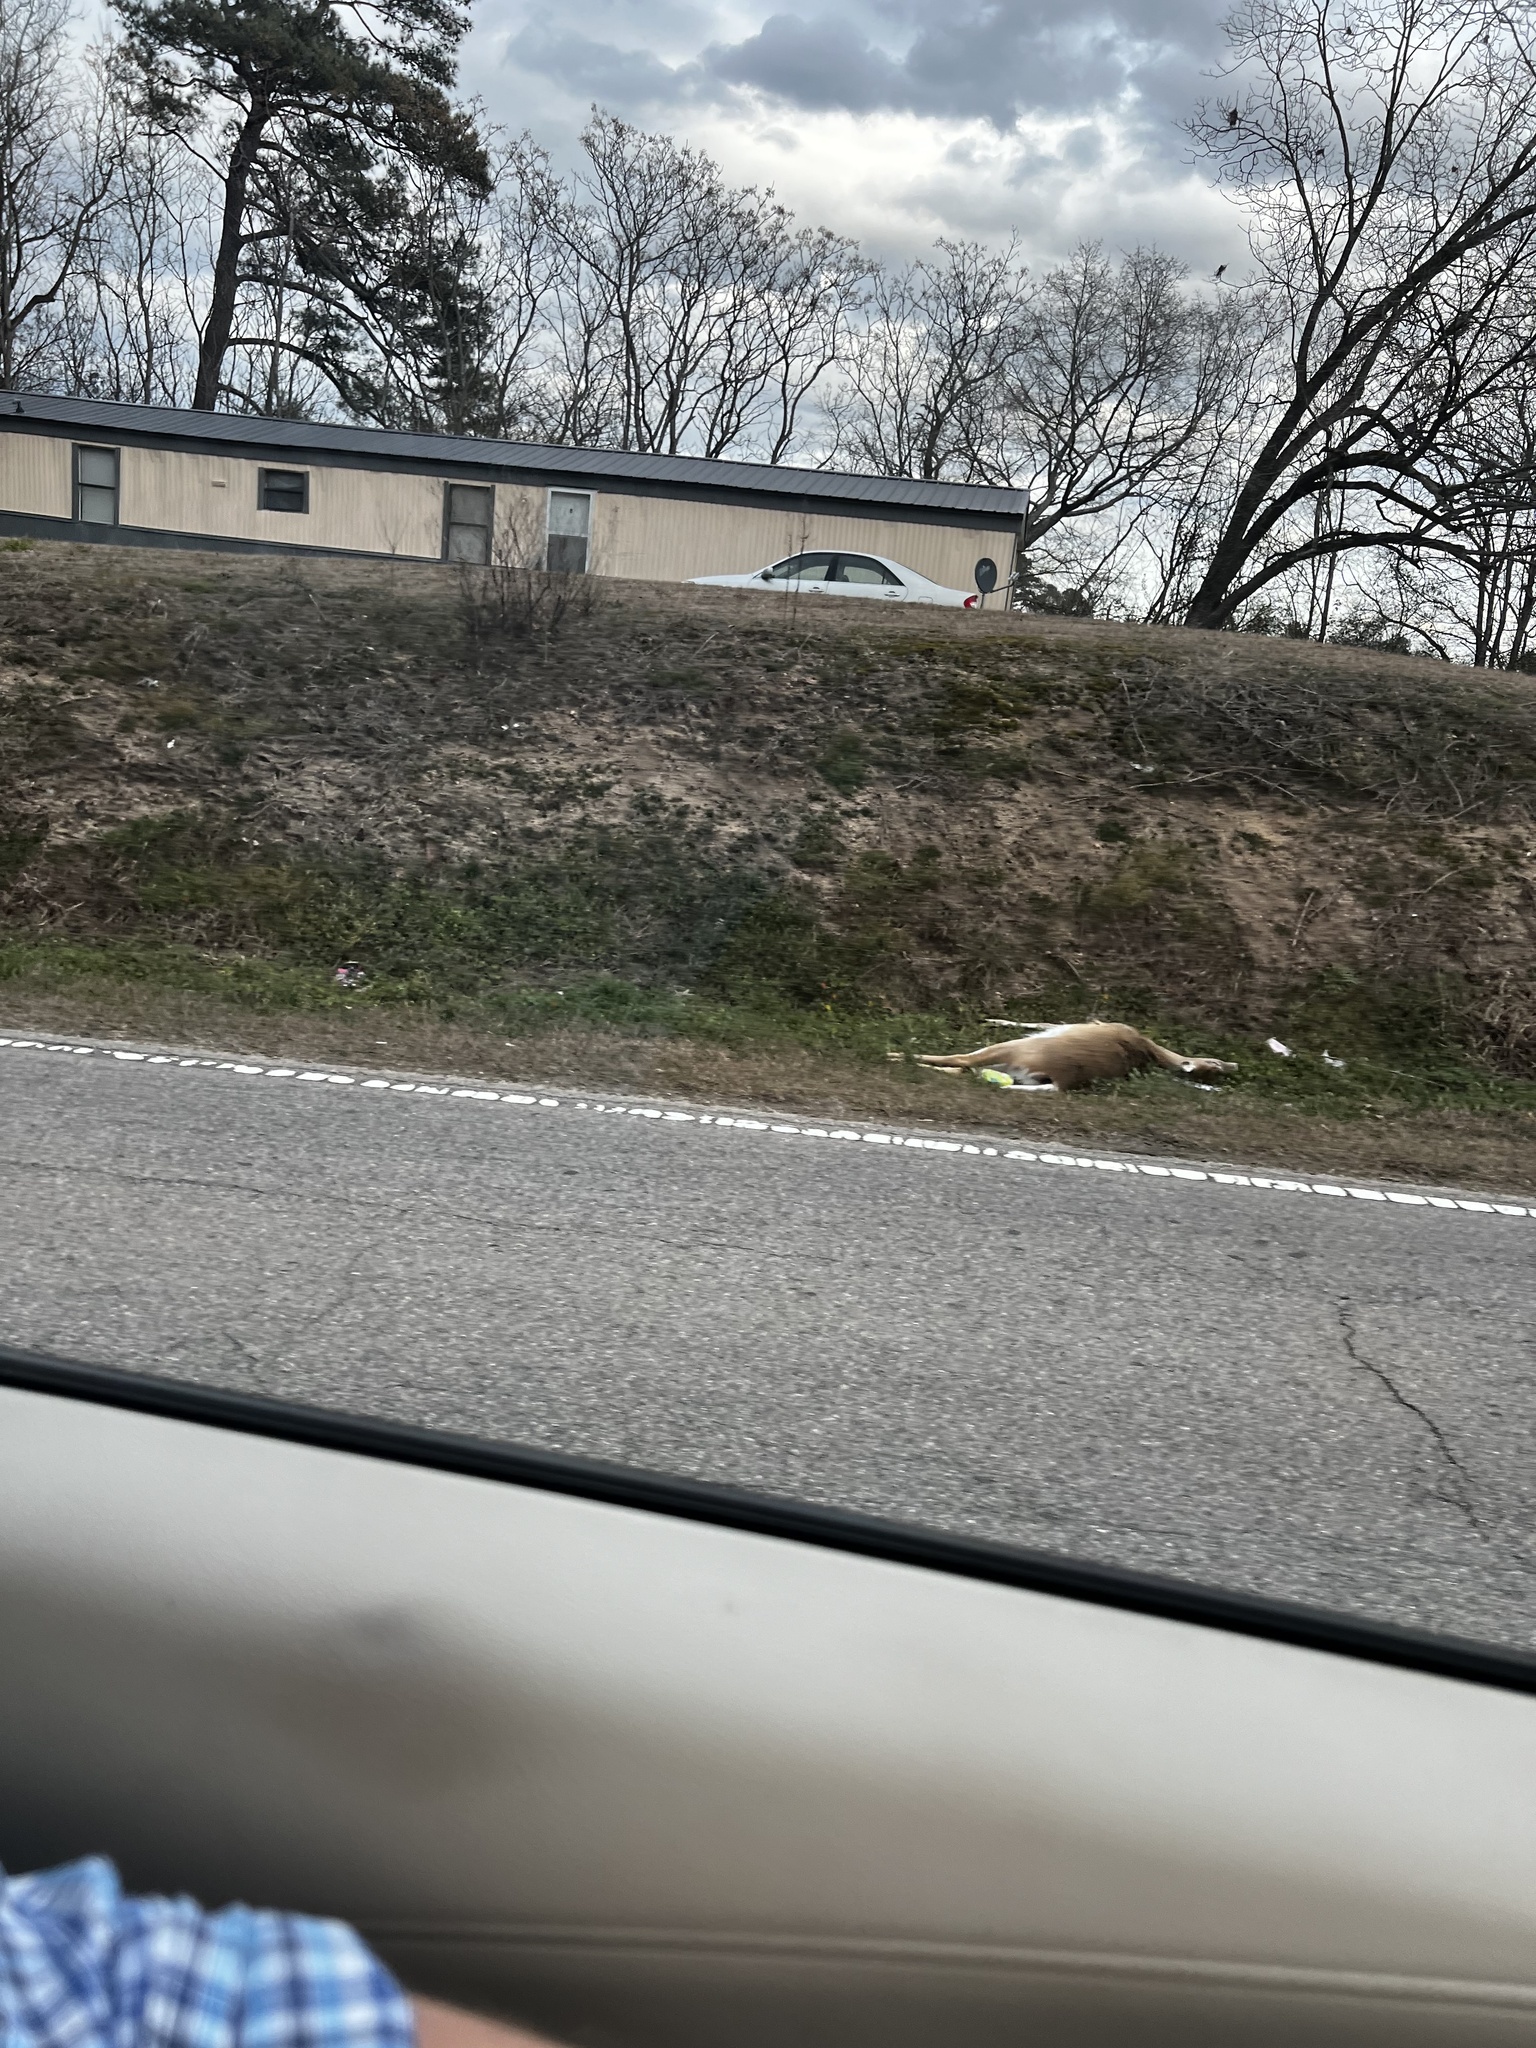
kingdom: Animalia
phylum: Chordata
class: Mammalia
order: Artiodactyla
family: Cervidae
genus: Odocoileus
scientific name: Odocoileus virginianus
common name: White-tailed deer
